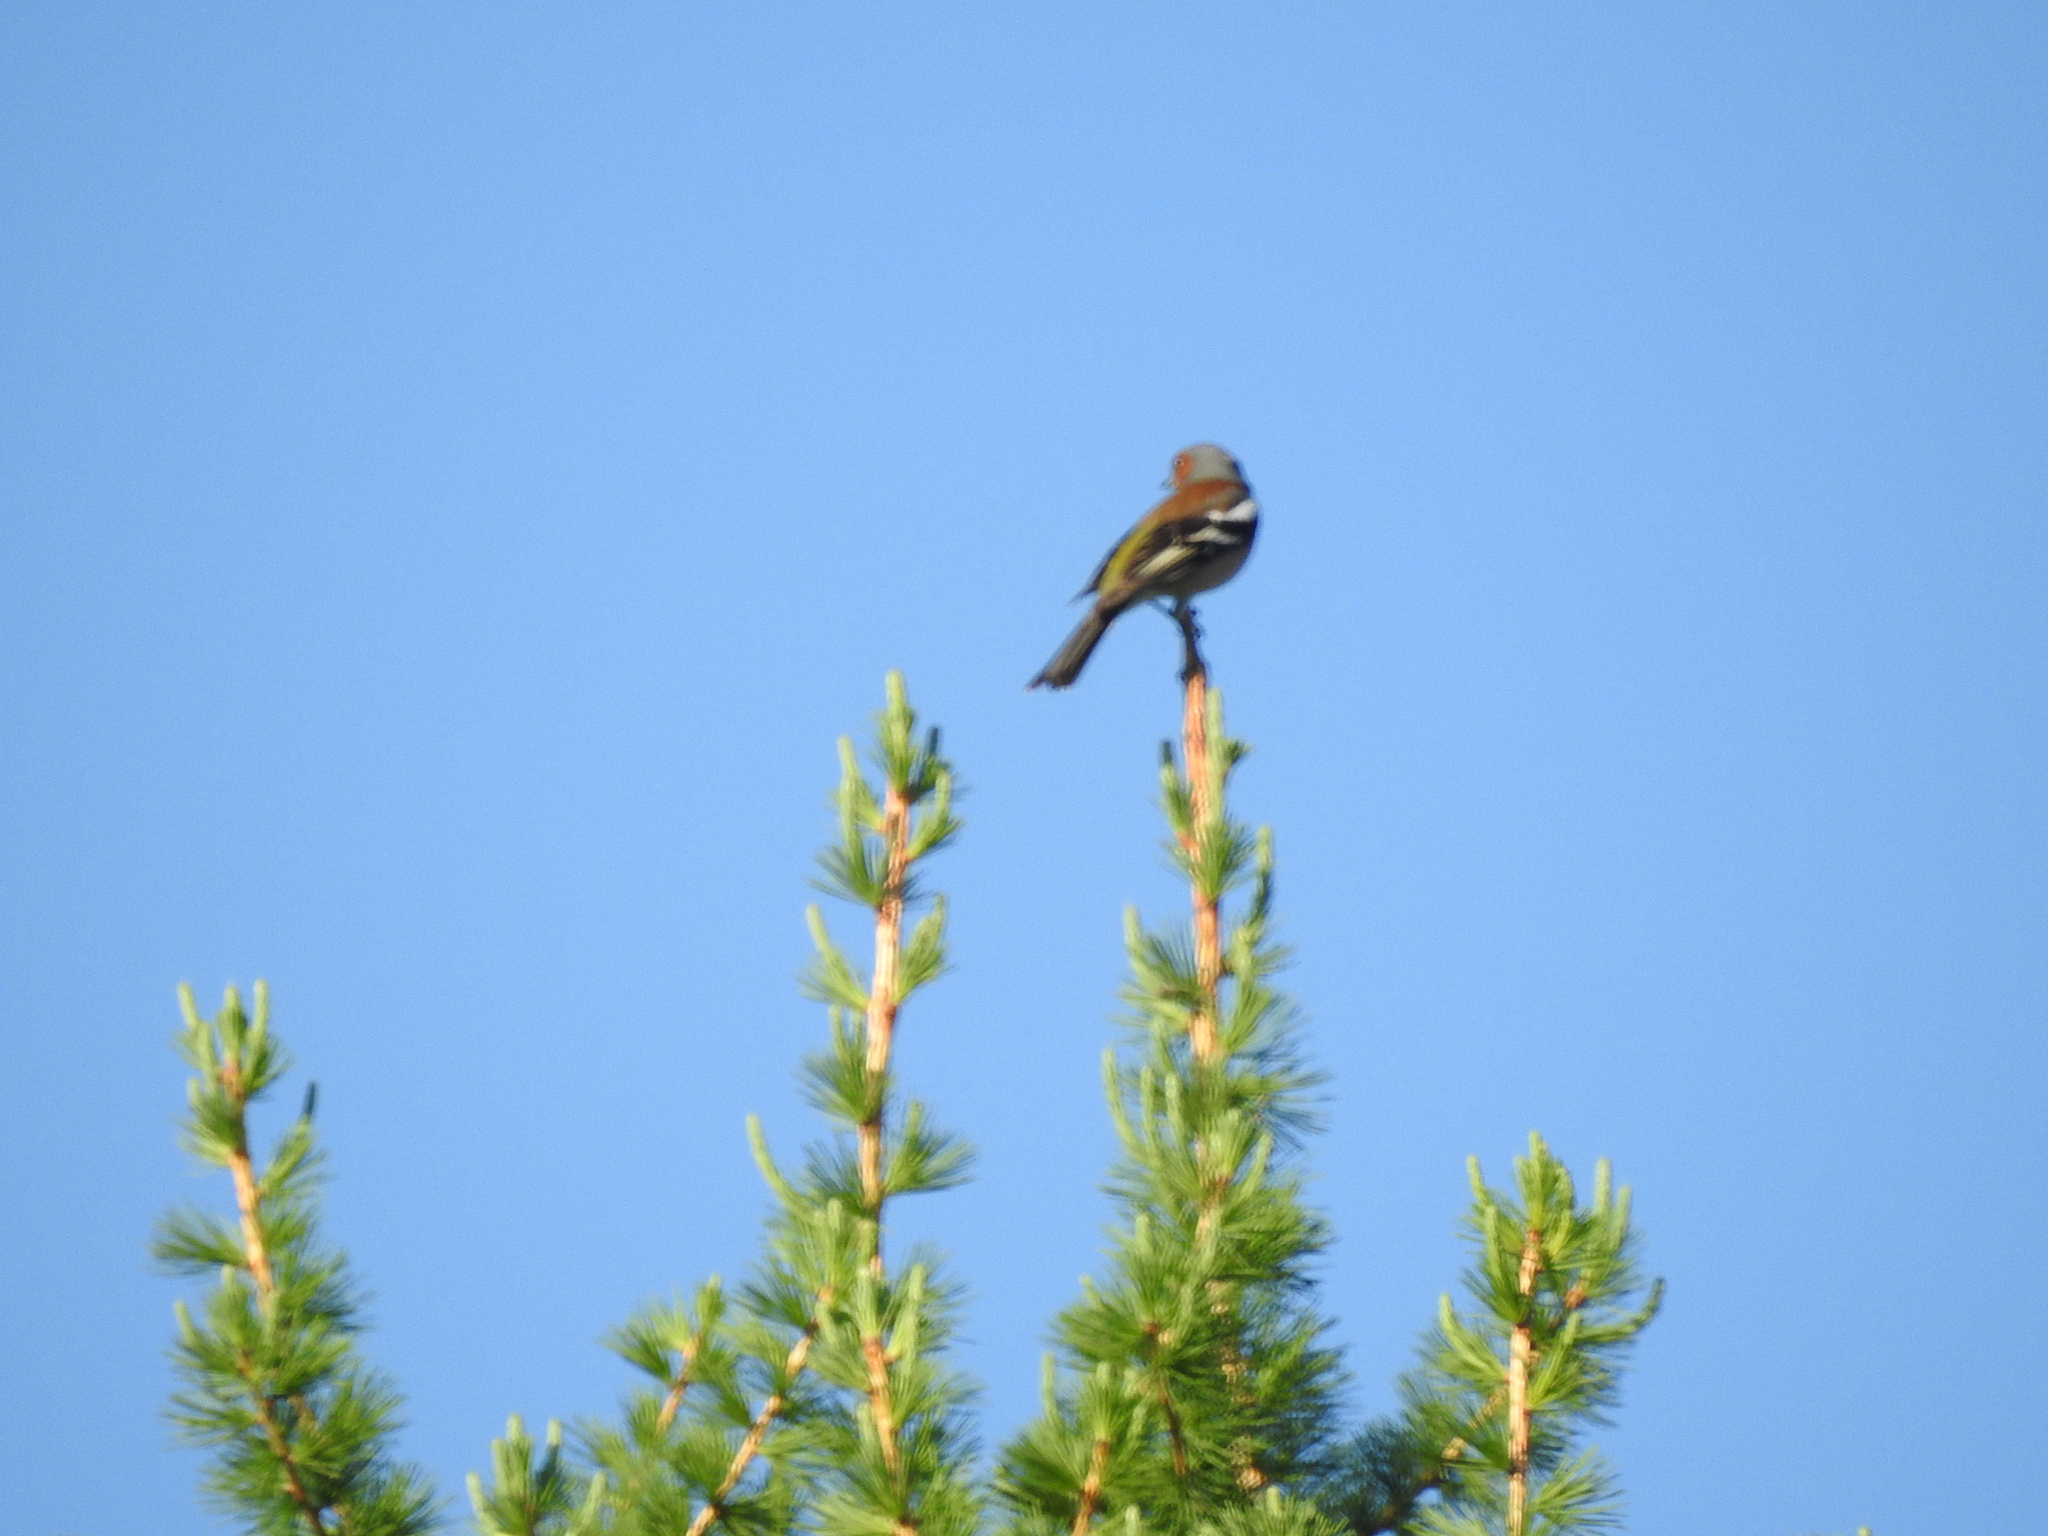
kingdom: Animalia
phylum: Chordata
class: Aves
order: Passeriformes
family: Fringillidae
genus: Fringilla
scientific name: Fringilla coelebs
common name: Common chaffinch
